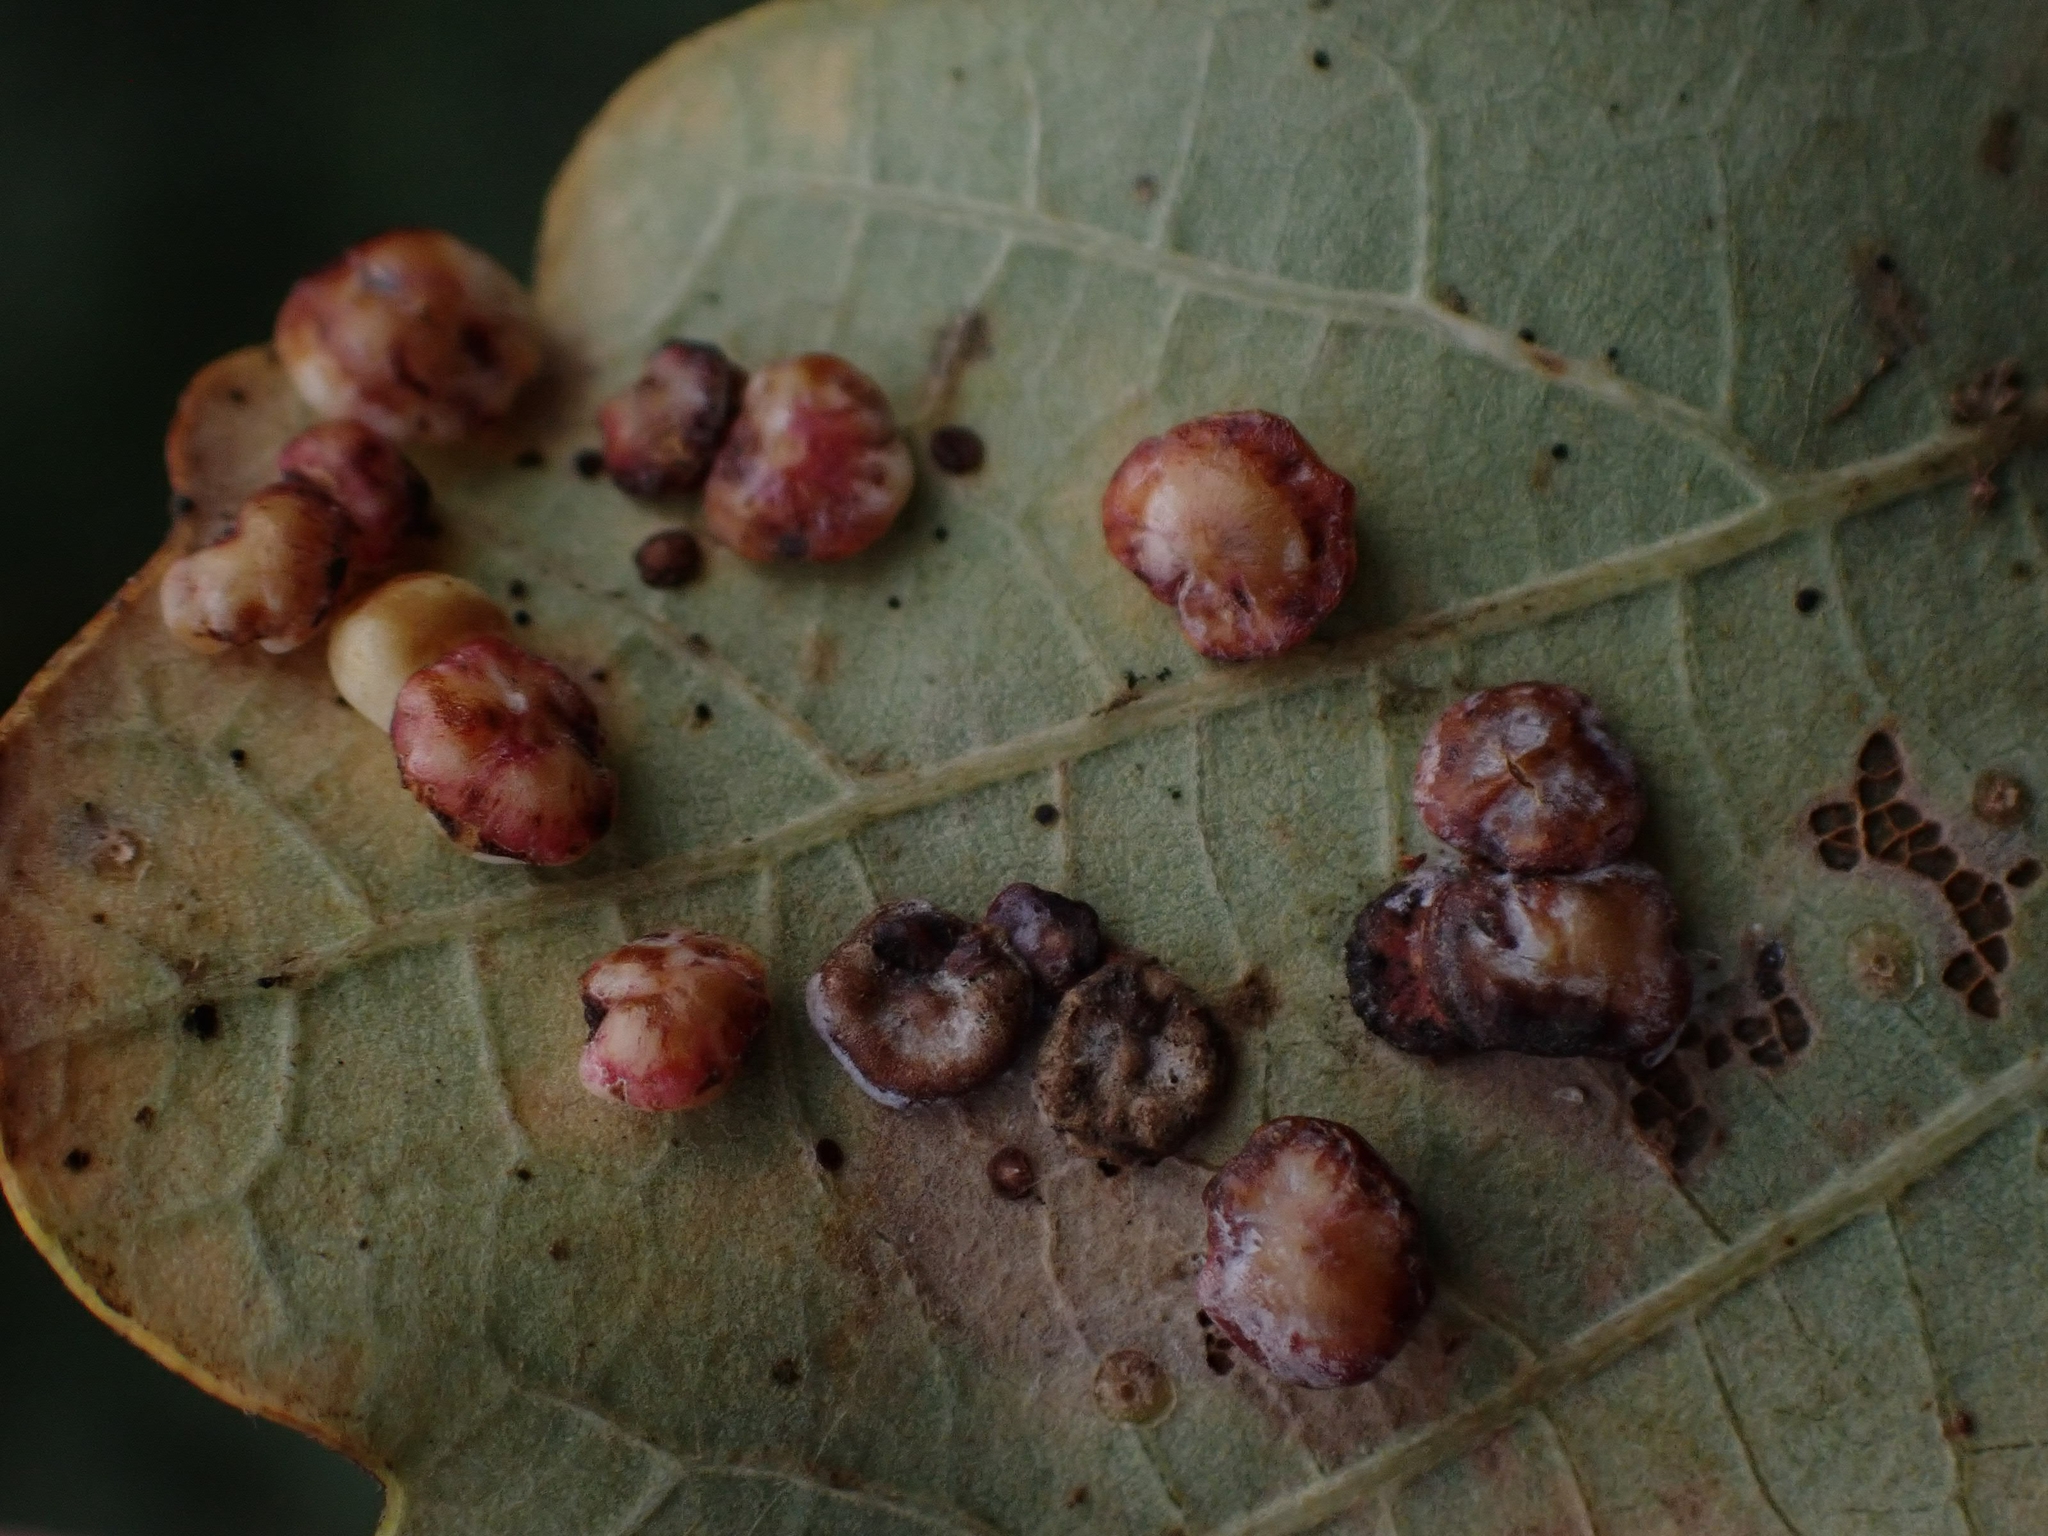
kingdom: Animalia
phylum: Arthropoda
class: Insecta
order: Hymenoptera
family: Cynipidae
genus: Phylloteras
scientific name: Phylloteras poculum
